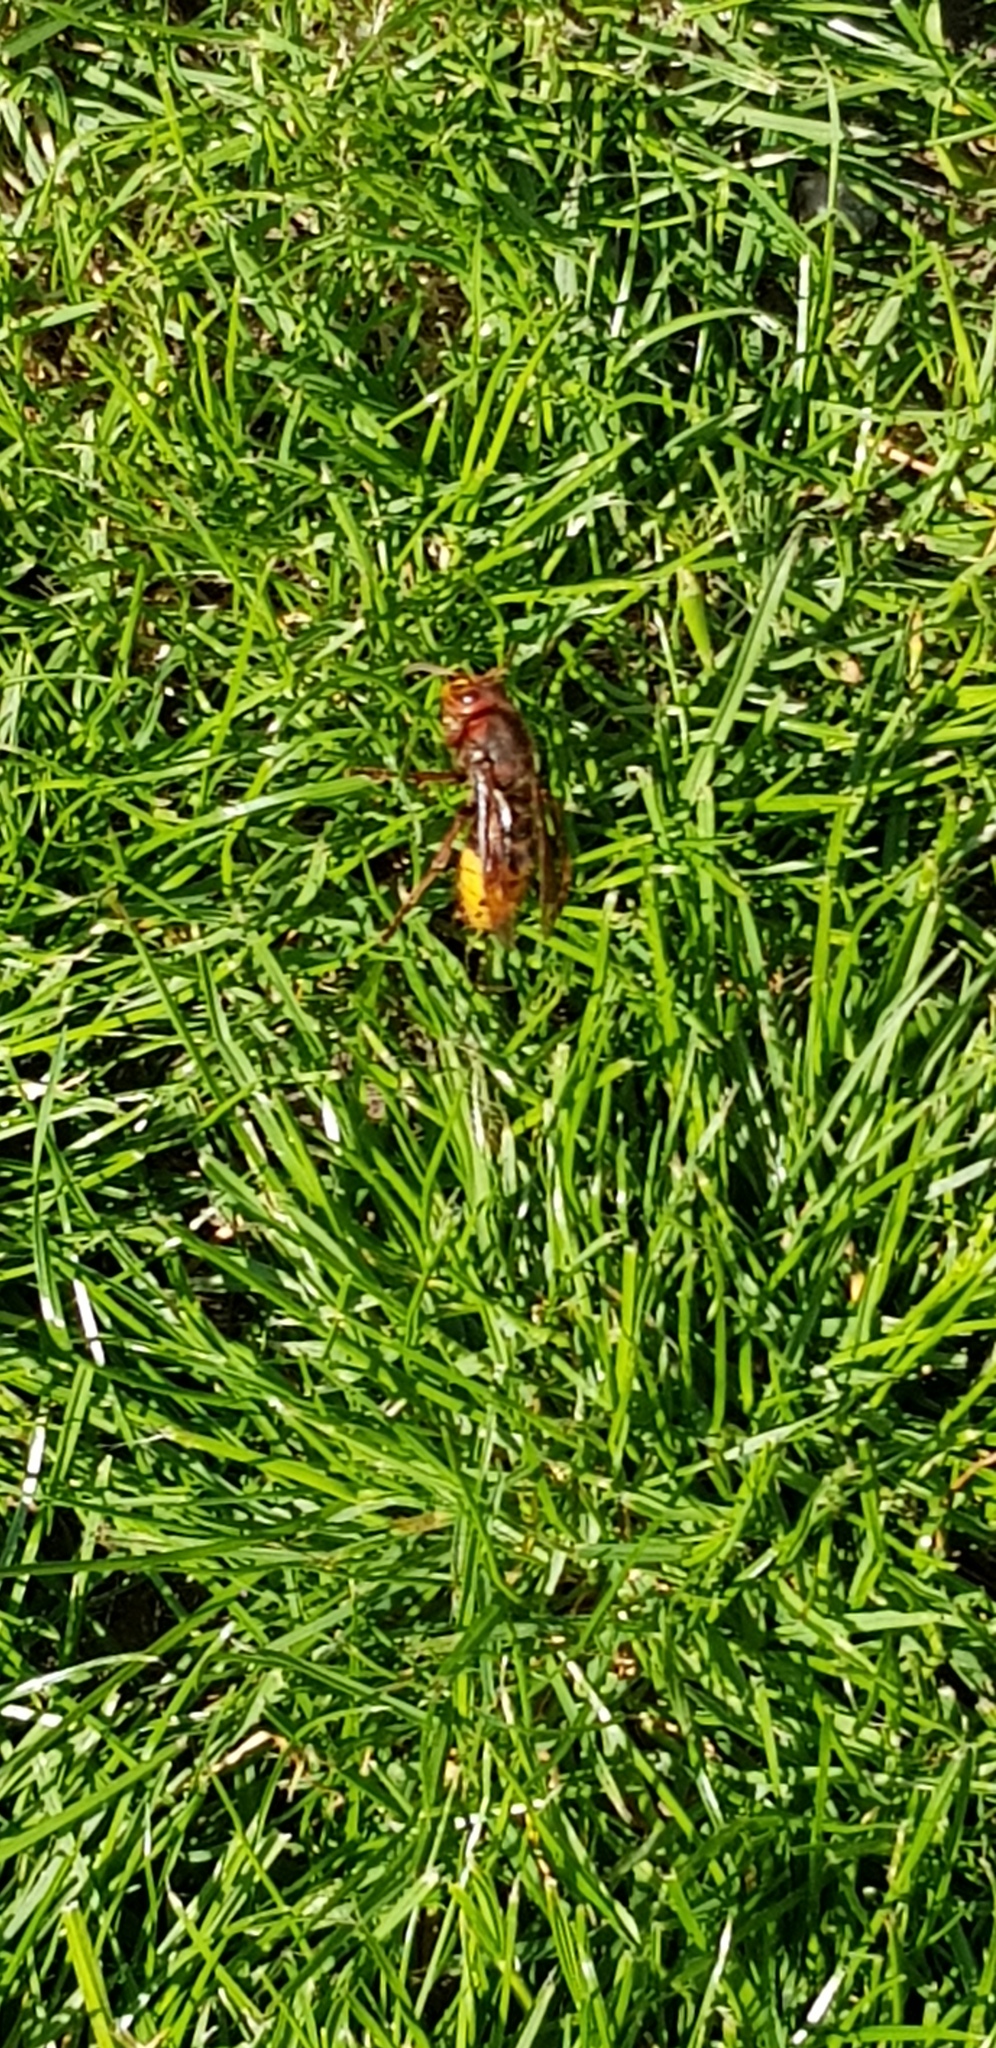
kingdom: Animalia
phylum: Arthropoda
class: Insecta
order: Hymenoptera
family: Vespidae
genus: Vespa
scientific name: Vespa crabro
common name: Hornet
